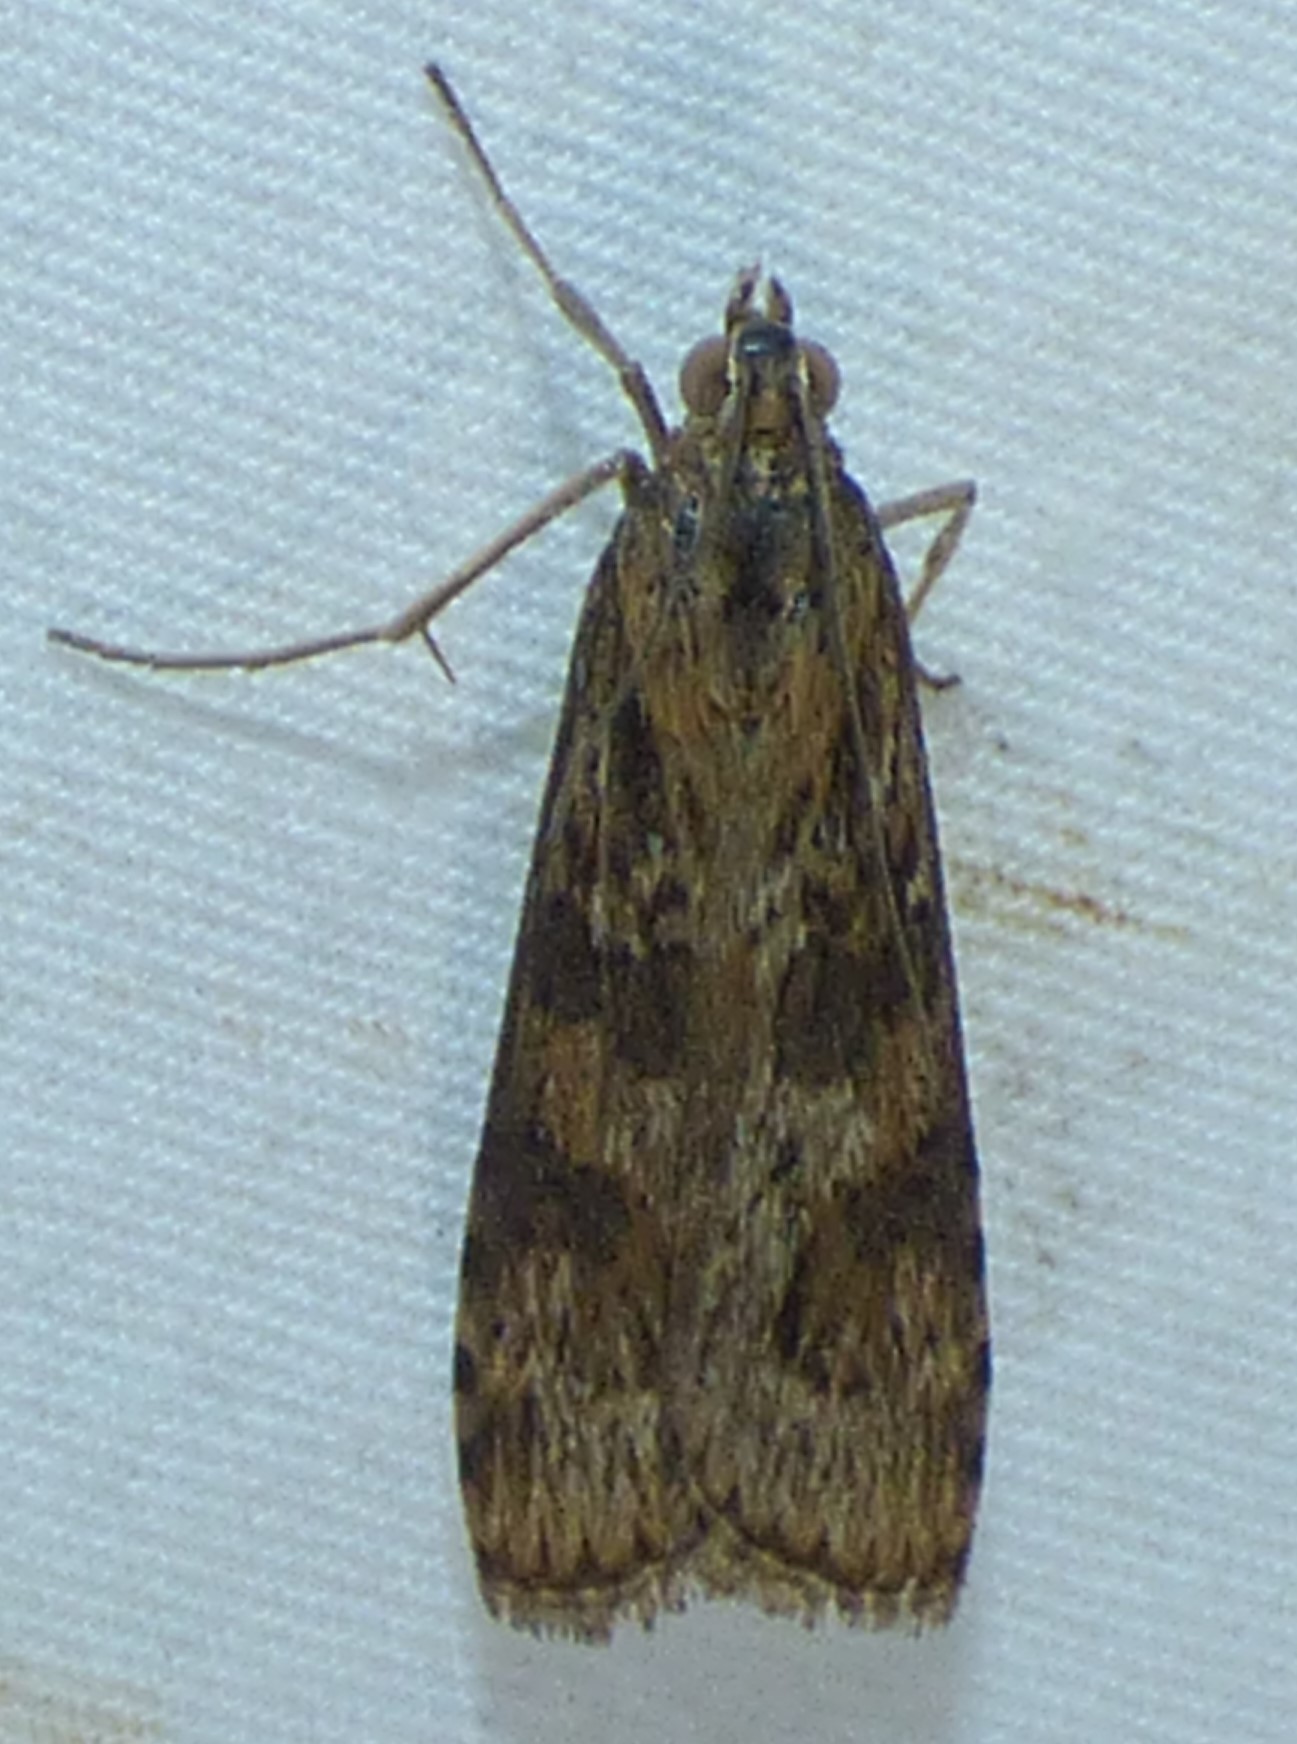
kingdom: Animalia
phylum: Arthropoda
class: Insecta
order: Lepidoptera
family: Crambidae
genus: Nomophila
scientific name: Nomophila nearctica
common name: American rush veneer
